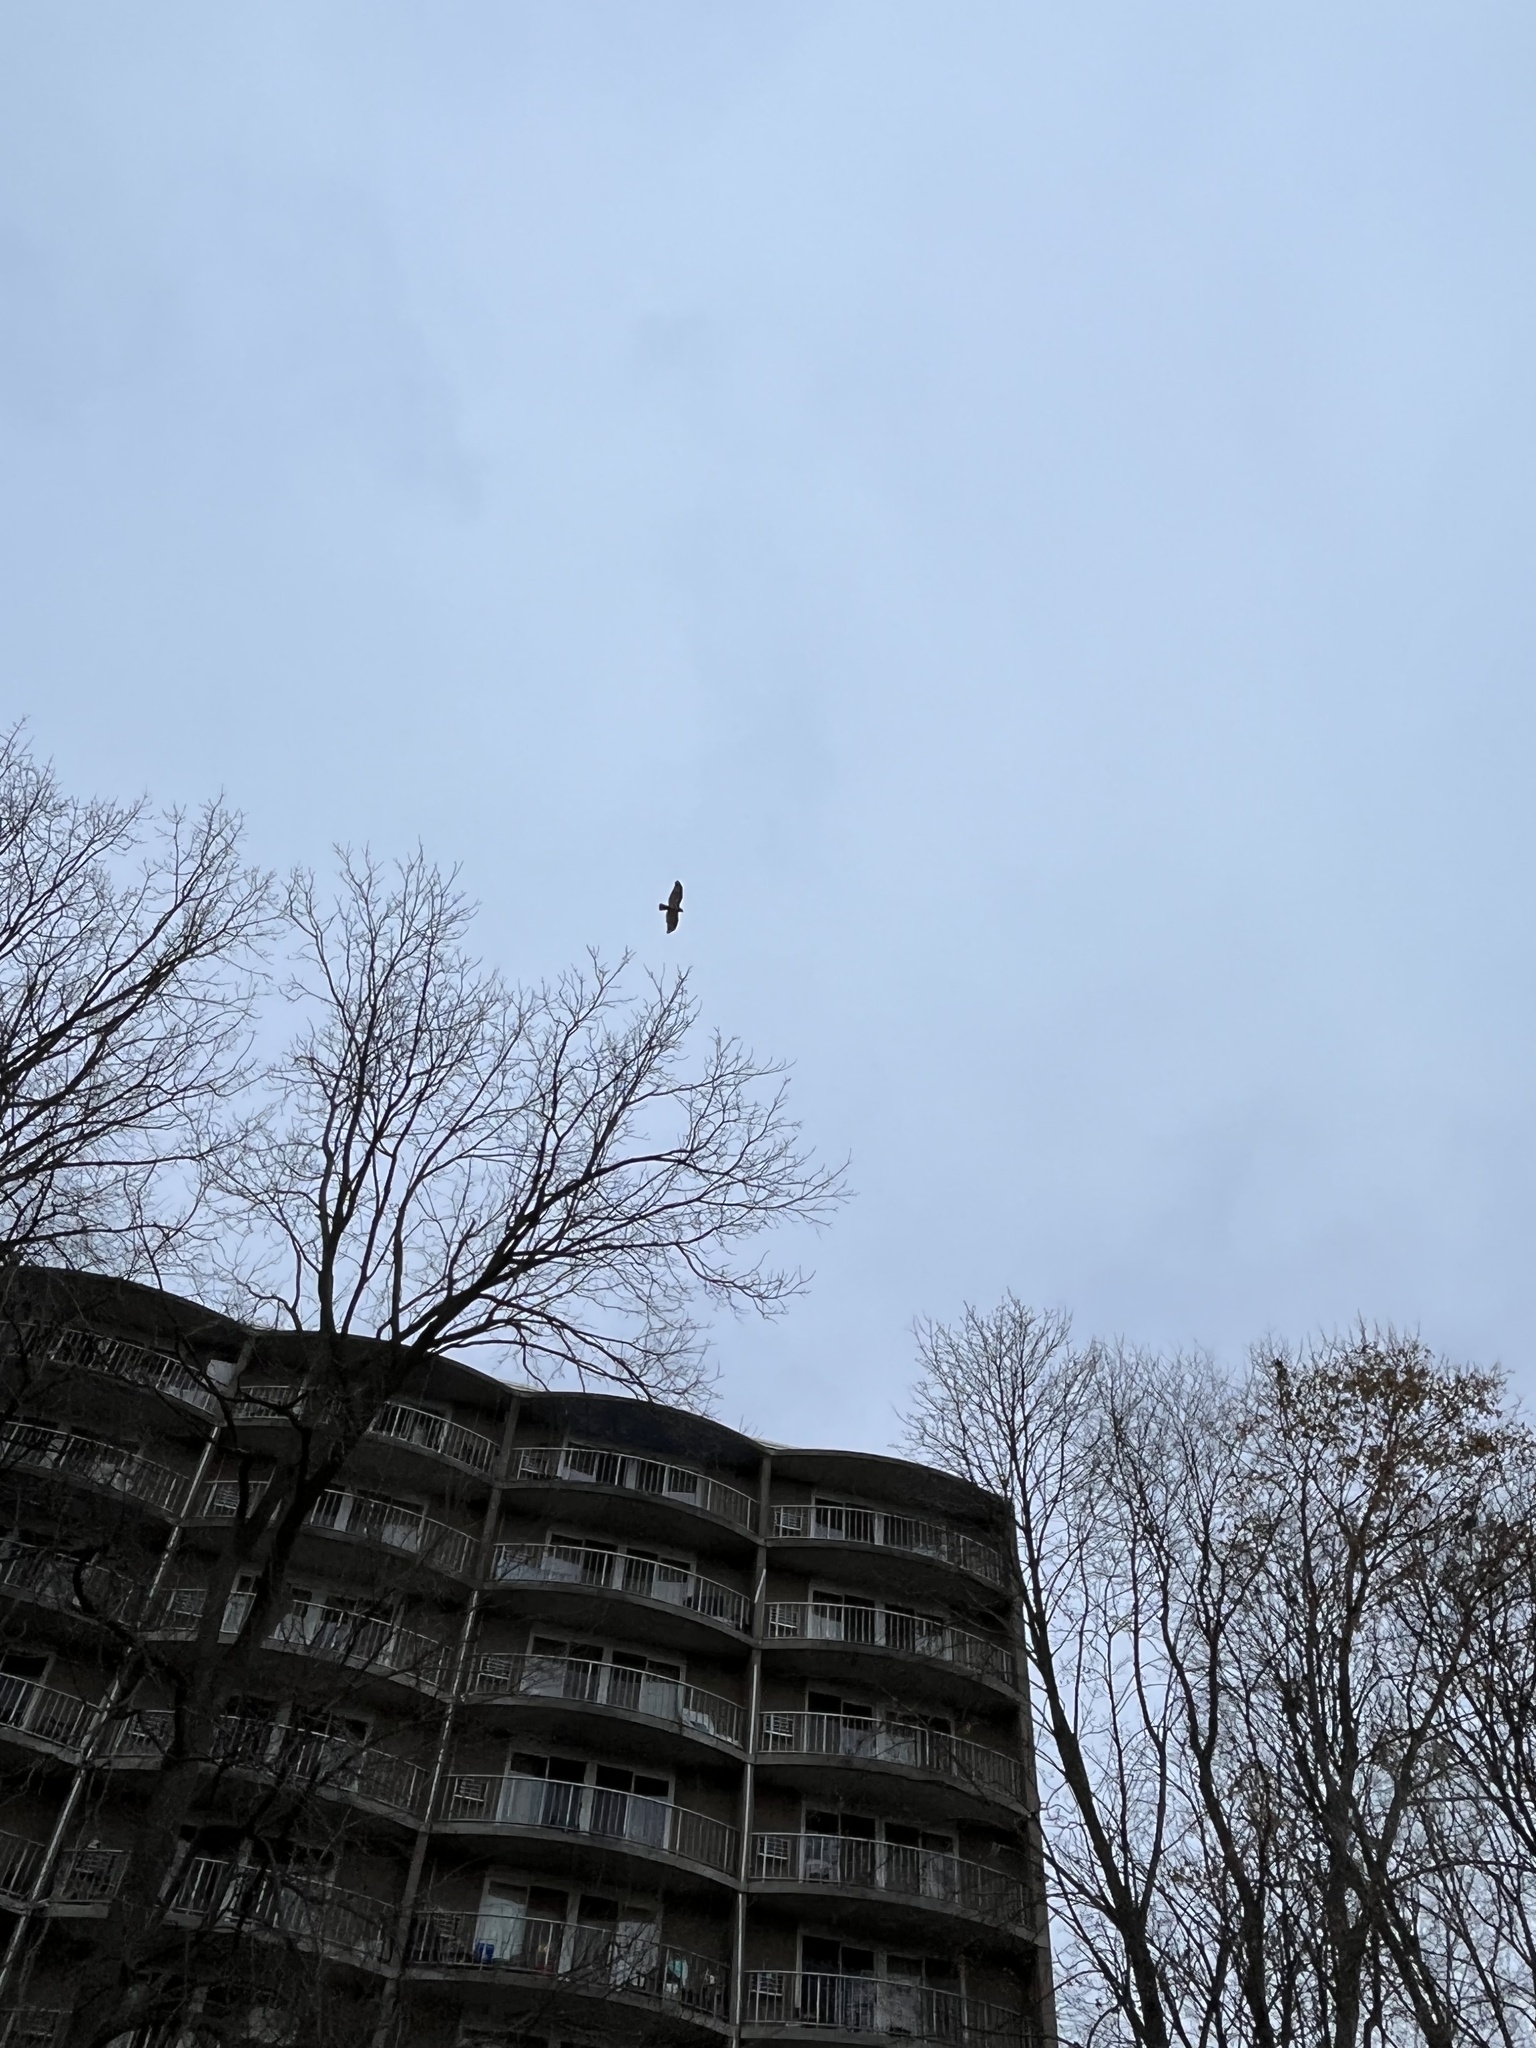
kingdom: Animalia
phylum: Chordata
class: Aves
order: Accipitriformes
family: Accipitridae
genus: Buteo
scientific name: Buteo jamaicensis
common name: Red-tailed hawk
